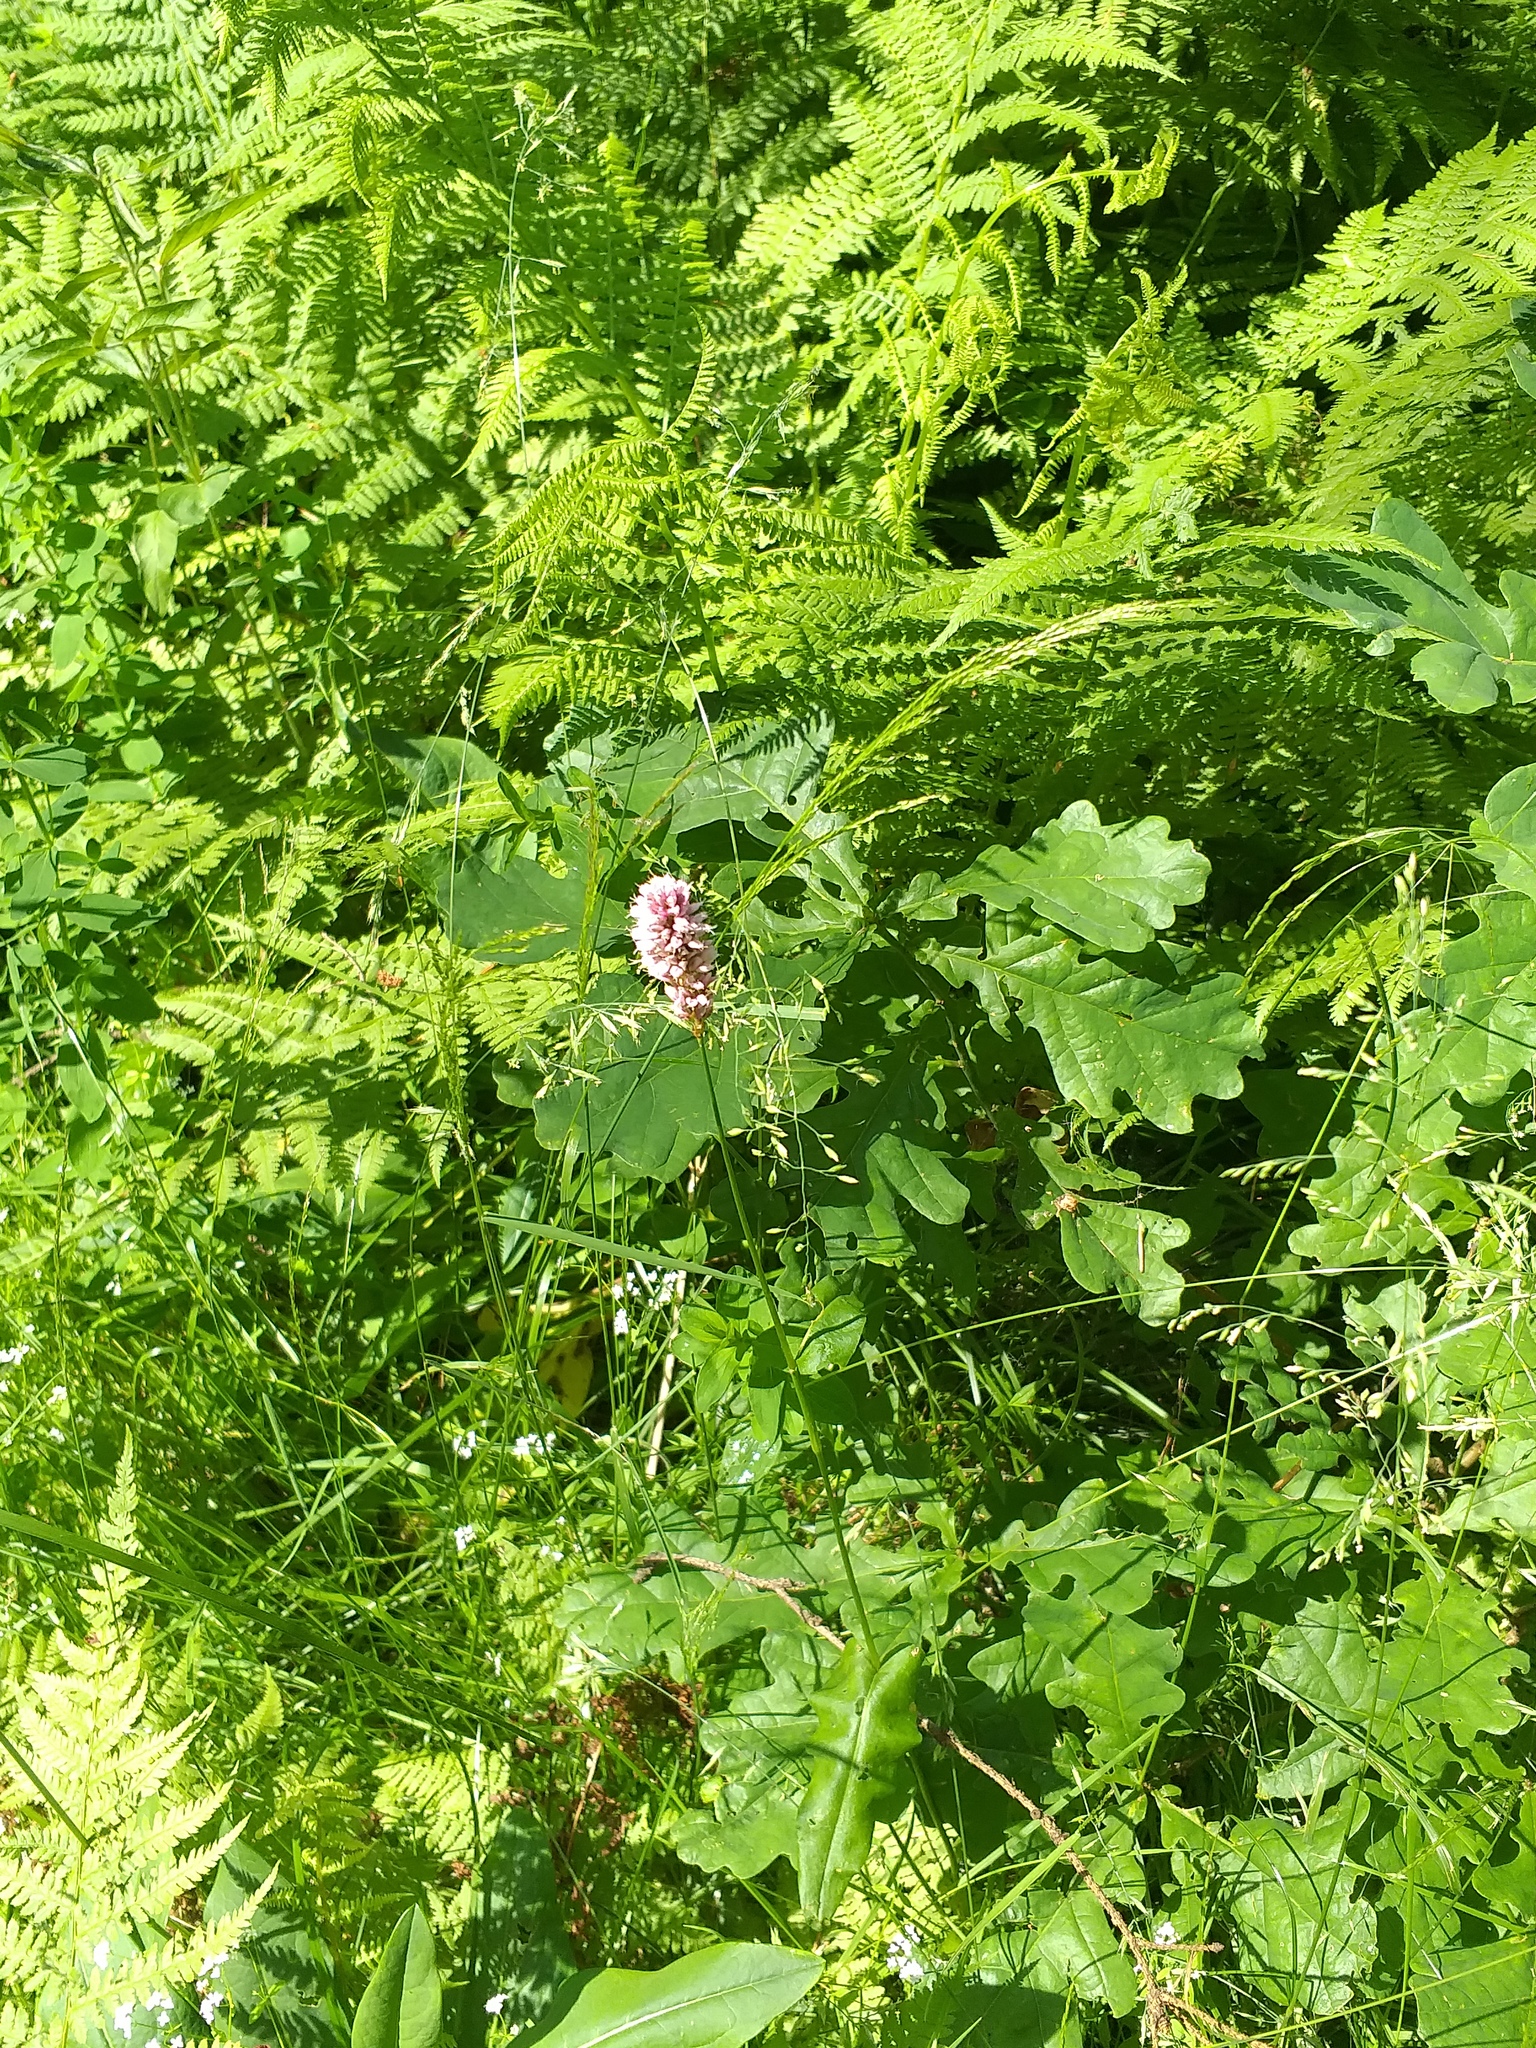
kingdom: Plantae
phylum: Tracheophyta
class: Magnoliopsida
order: Caryophyllales
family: Polygonaceae
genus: Bistorta
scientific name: Bistorta officinalis
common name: Common bistort
